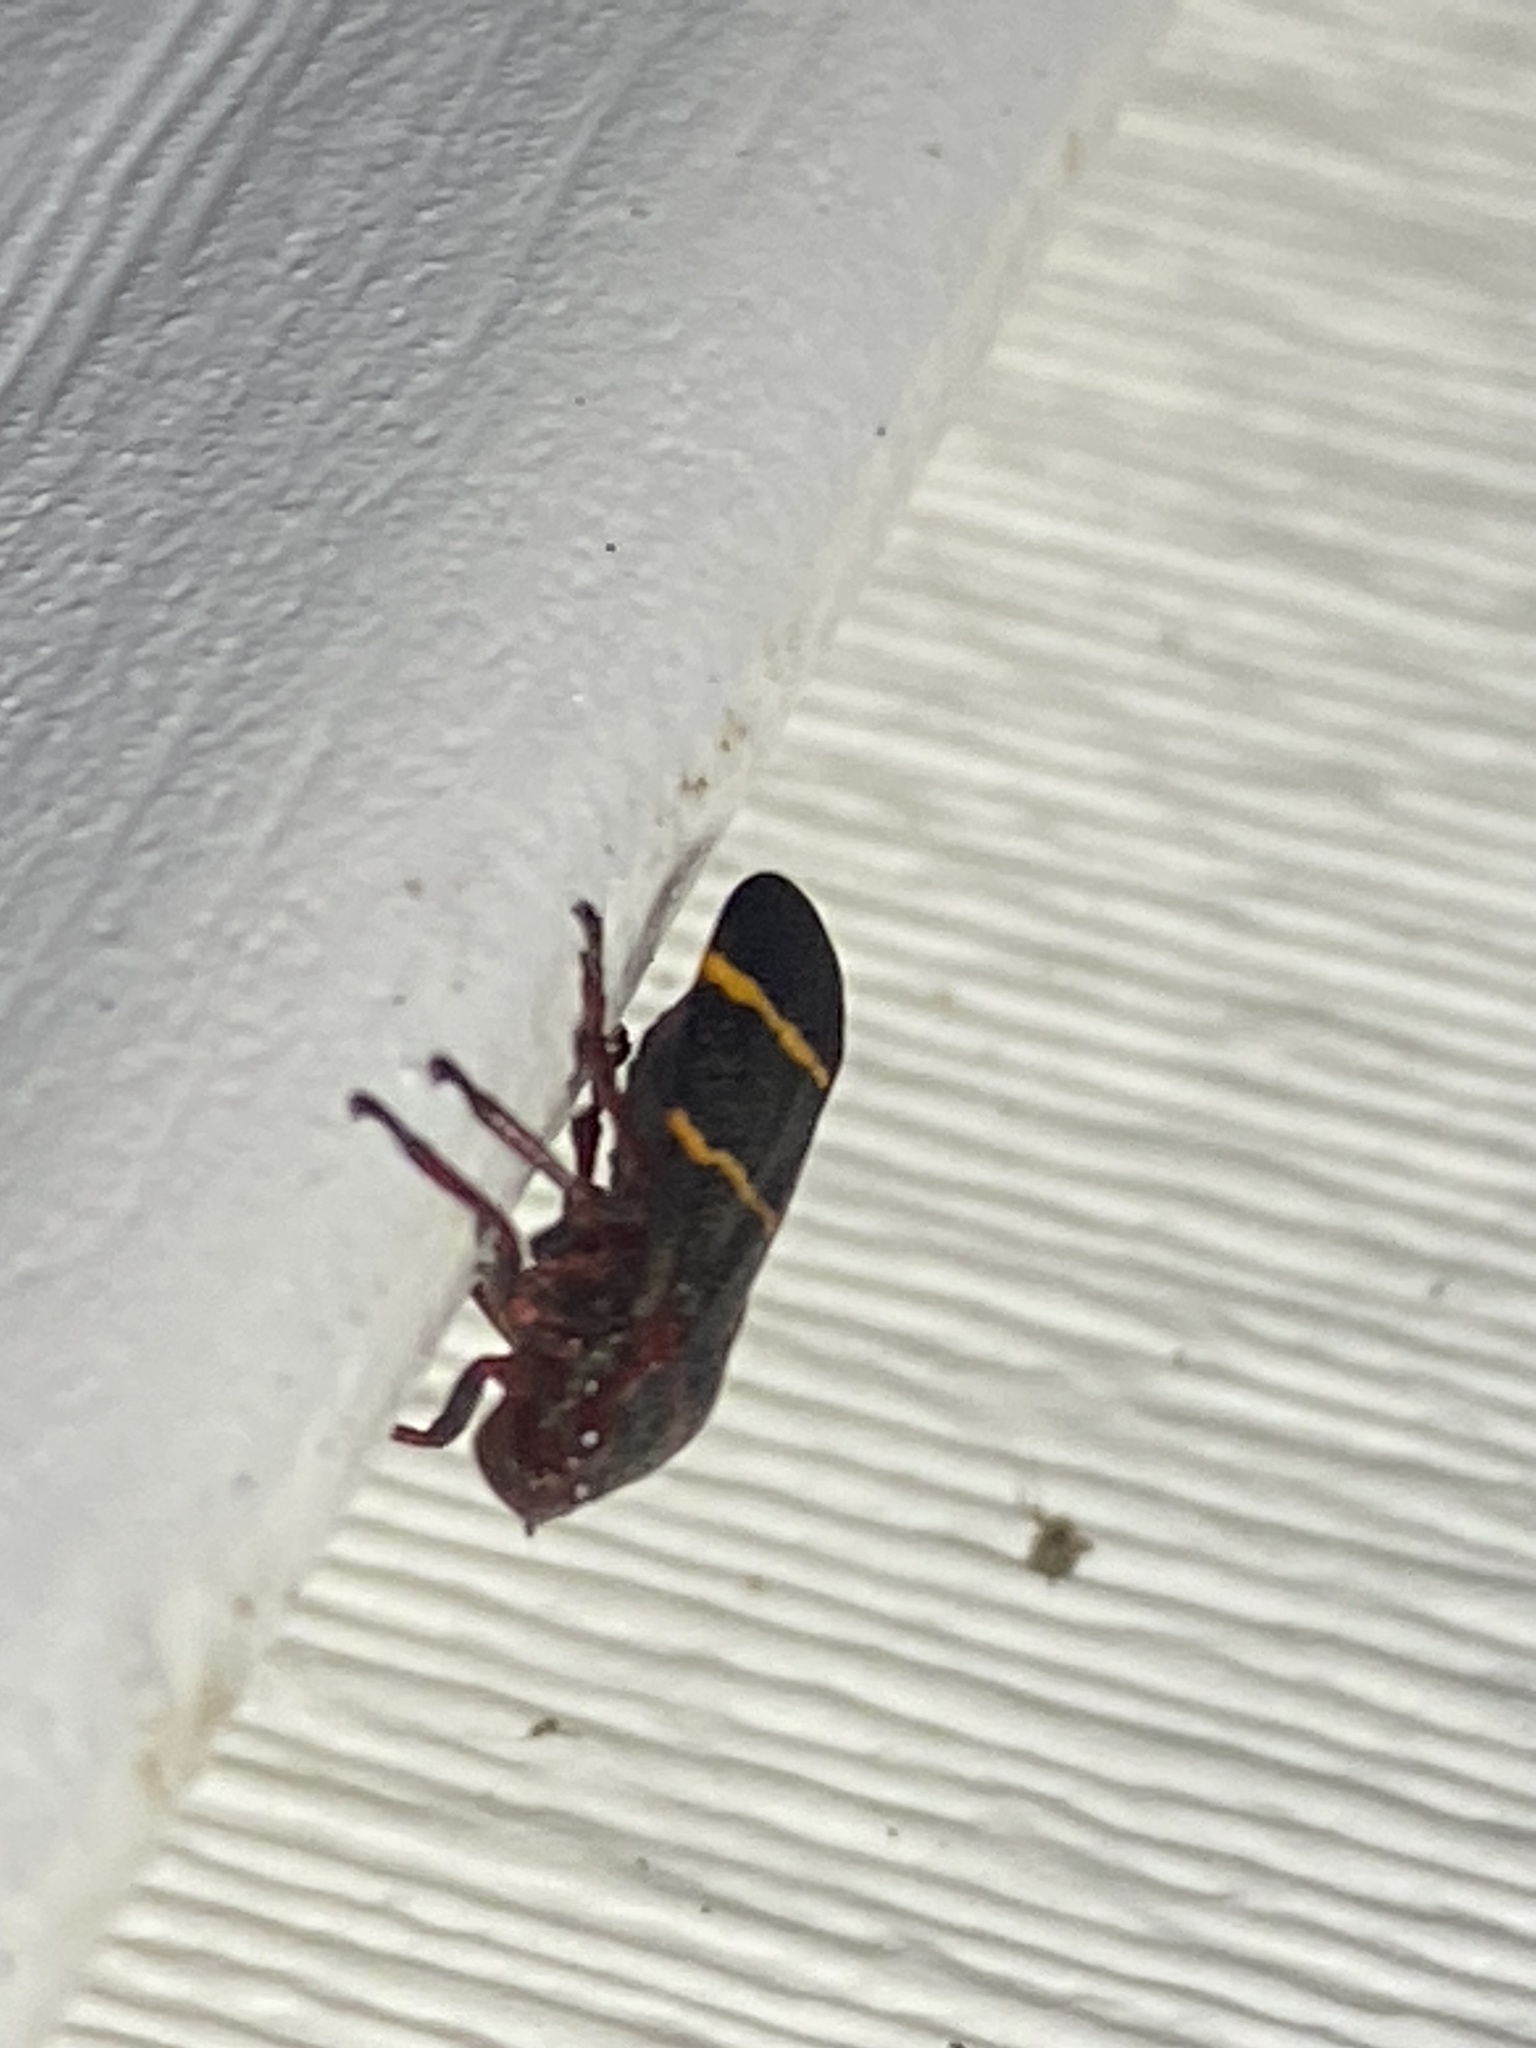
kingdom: Animalia
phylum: Arthropoda
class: Insecta
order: Hemiptera
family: Cercopidae
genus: Prosapia
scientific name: Prosapia bicincta
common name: Twolined spittlebug
